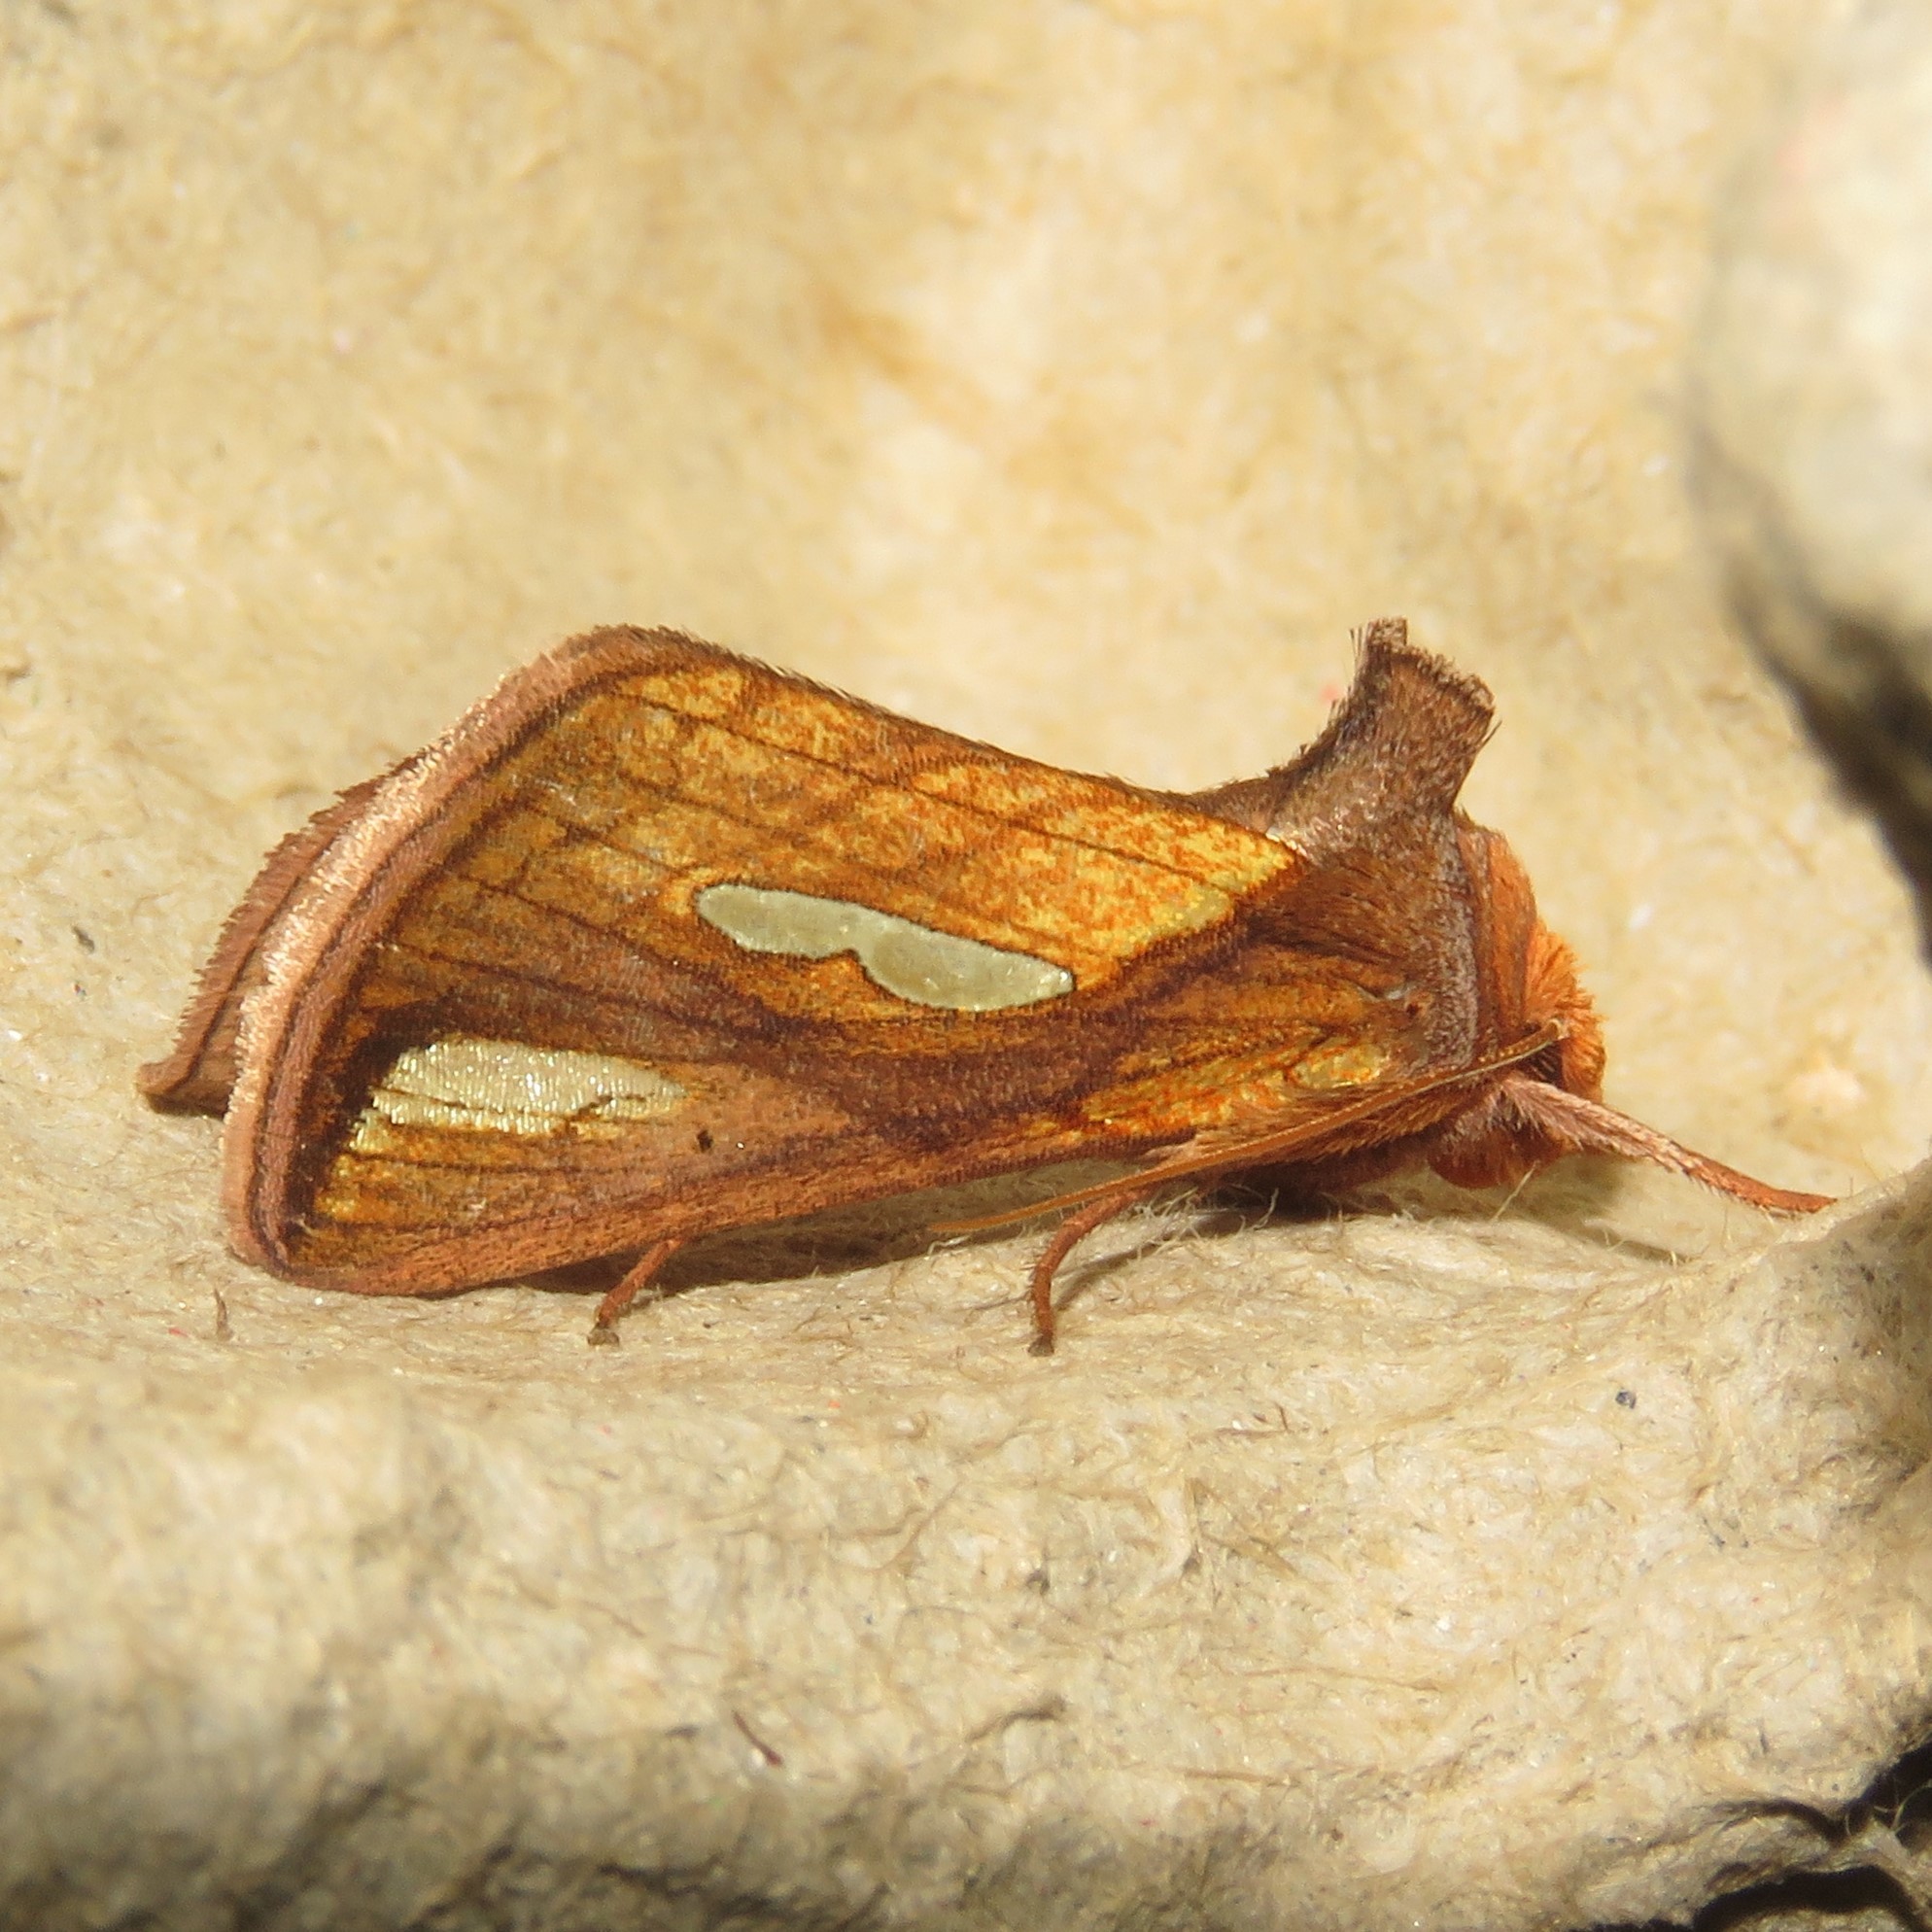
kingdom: Animalia
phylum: Arthropoda
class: Insecta
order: Lepidoptera
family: Noctuidae
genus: Plusia
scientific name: Plusia contexta
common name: Connected looper moth
